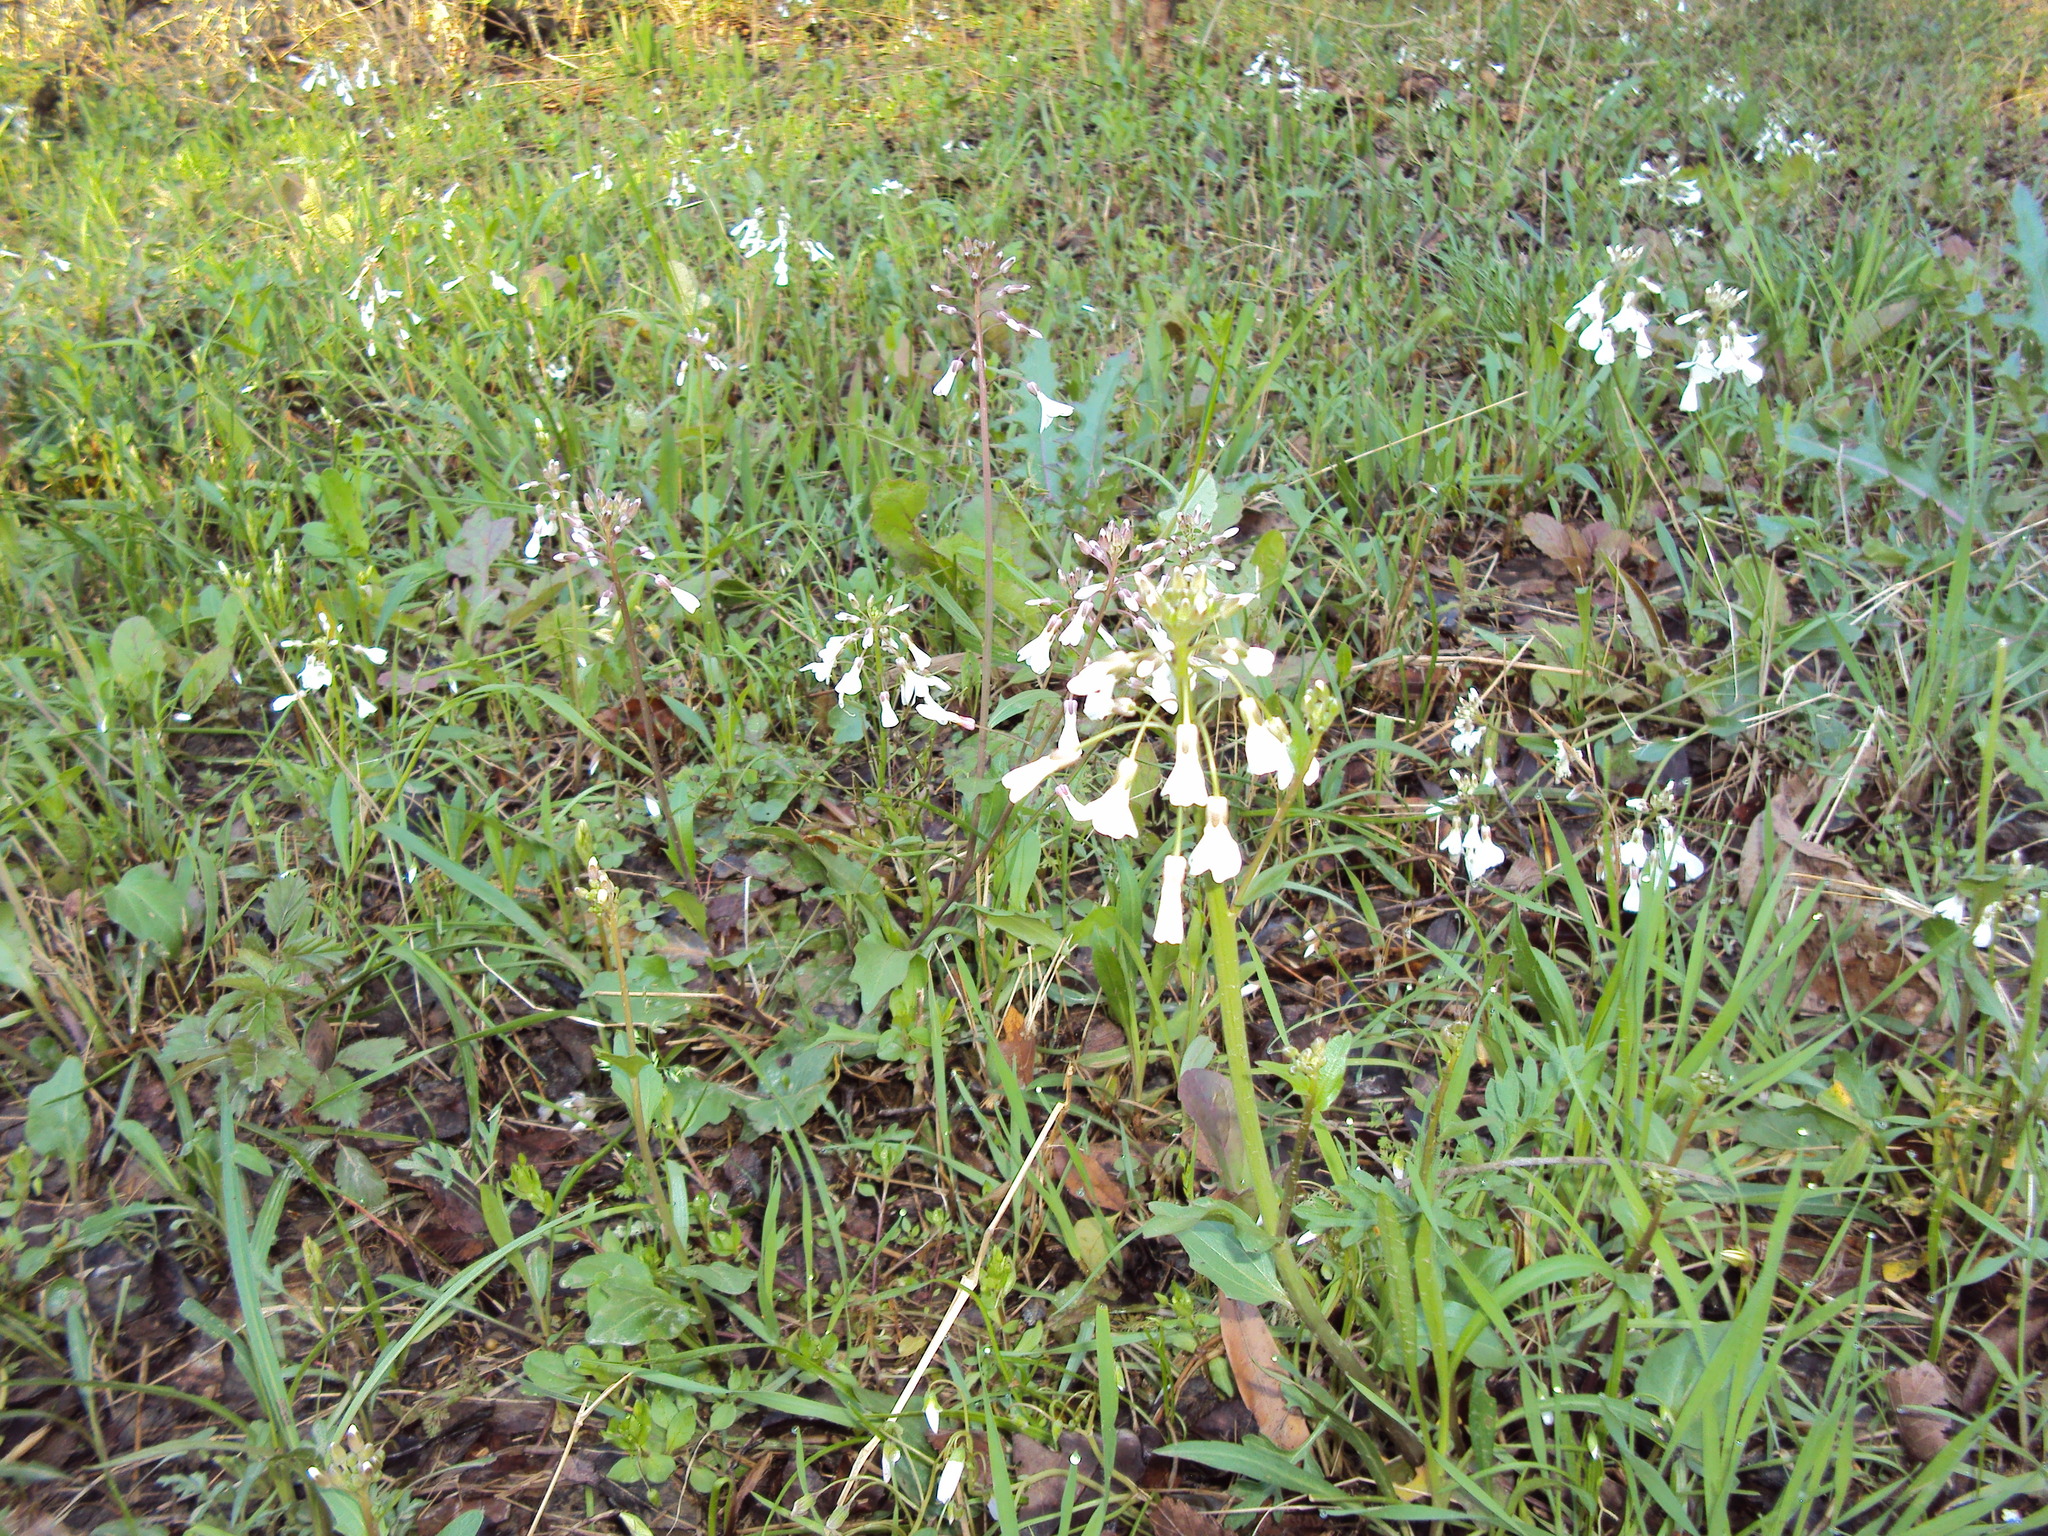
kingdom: Plantae
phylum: Tracheophyta
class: Magnoliopsida
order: Brassicales
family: Brassicaceae
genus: Cardamine
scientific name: Cardamine bulbosa
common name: Spring cress
